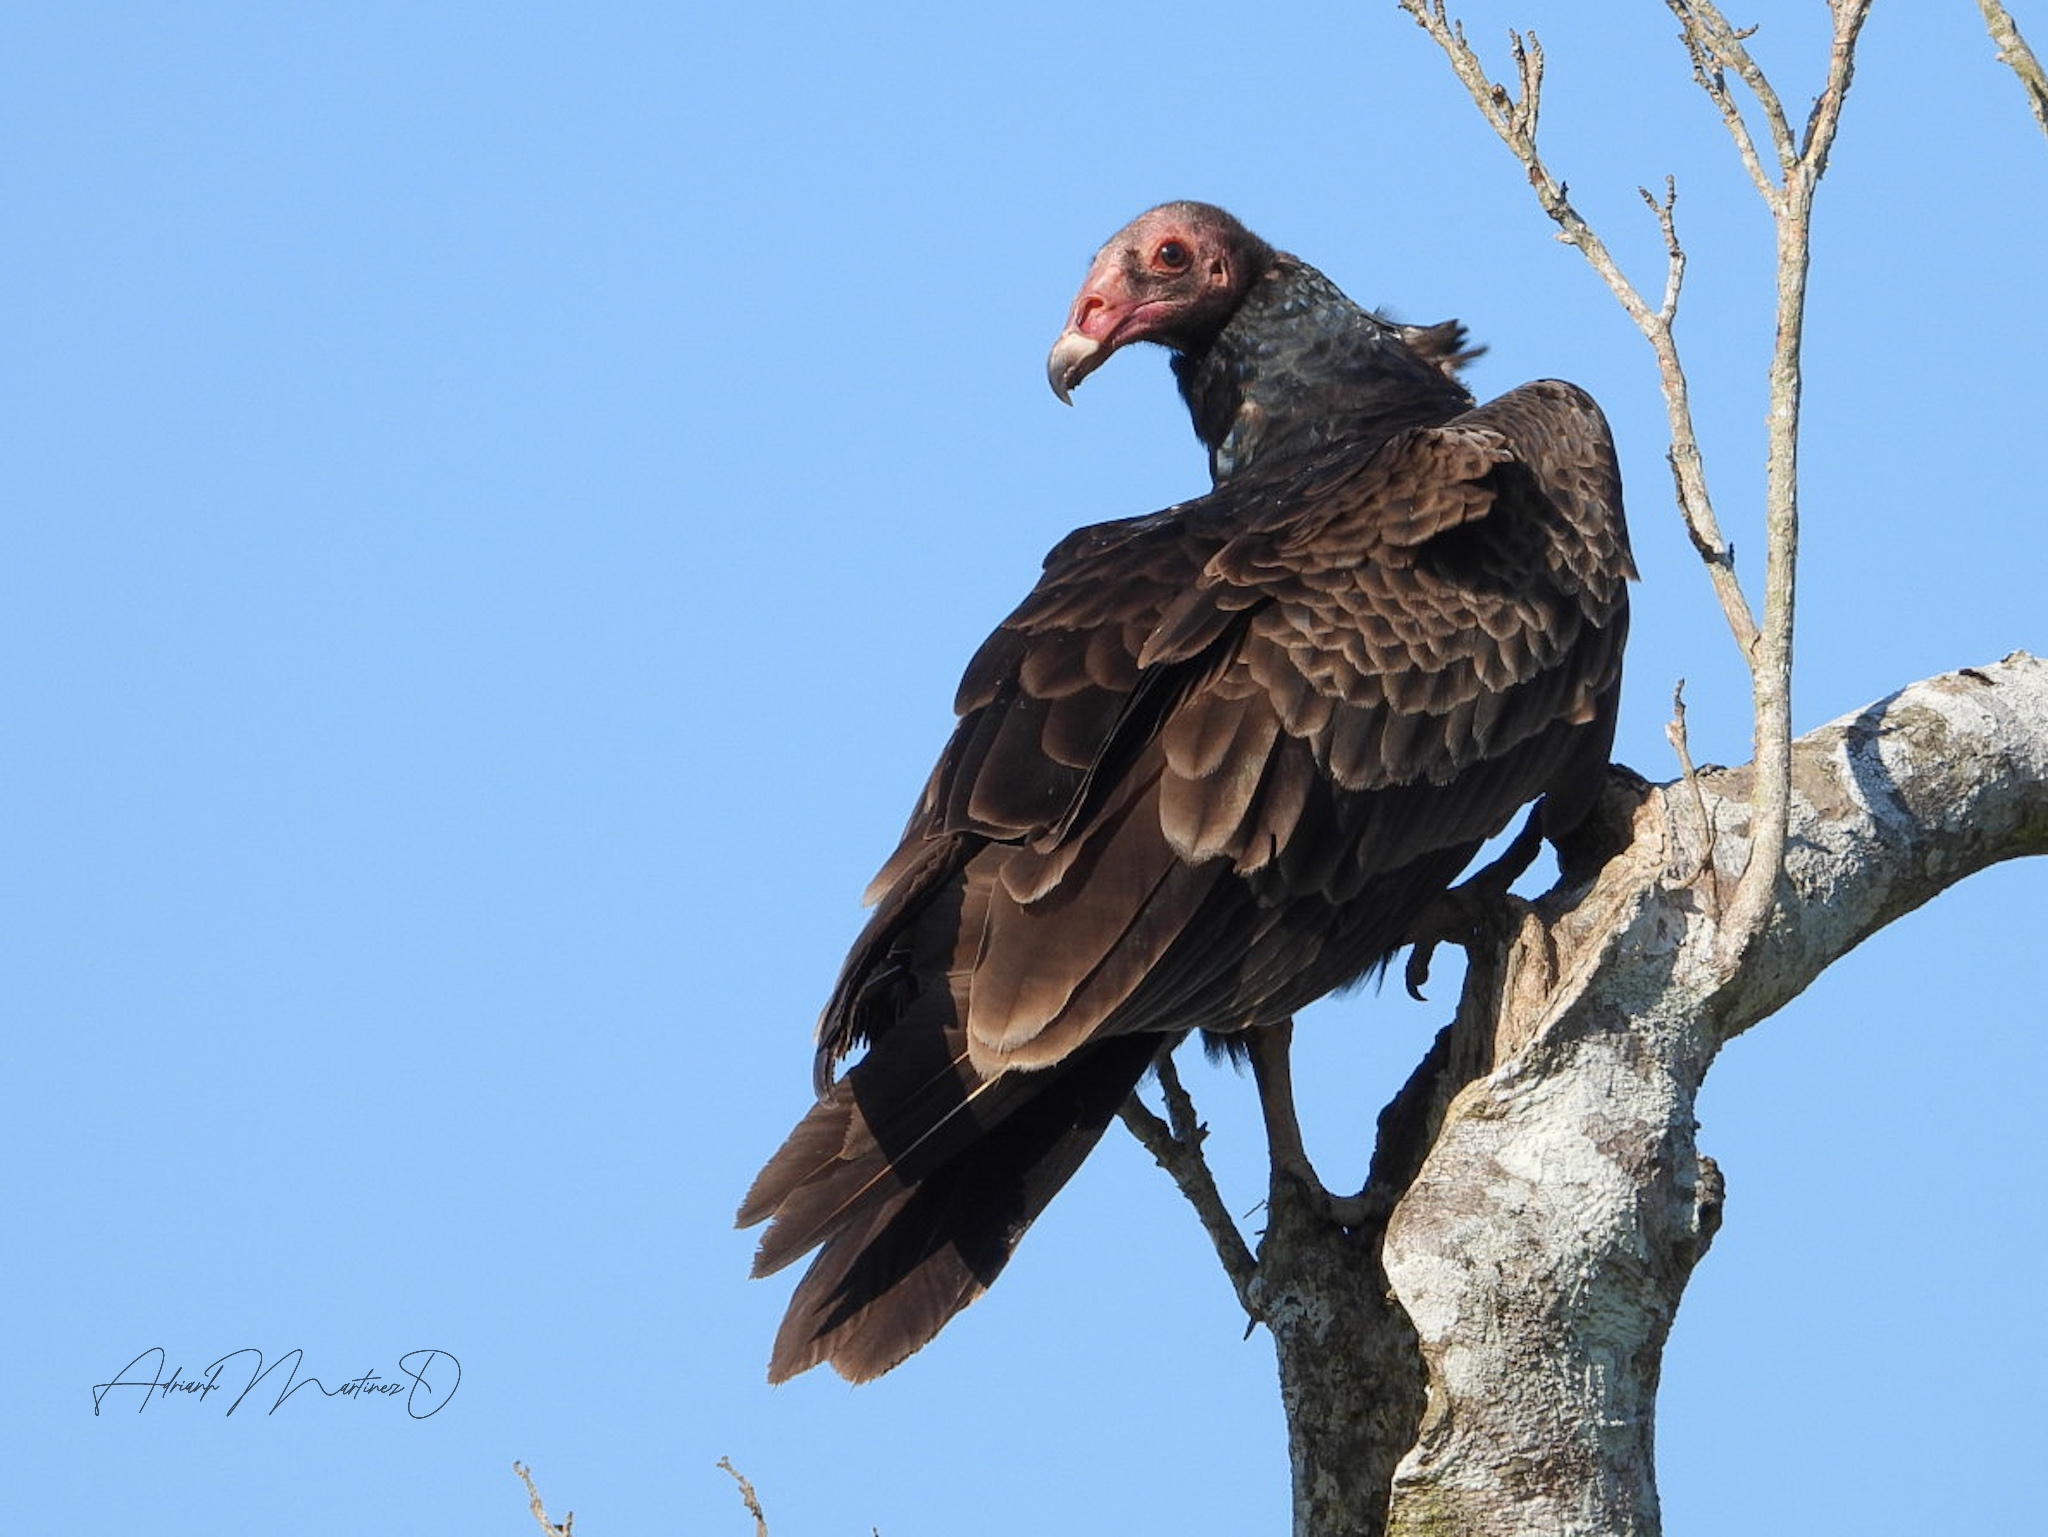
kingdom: Animalia
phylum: Chordata
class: Aves
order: Accipitriformes
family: Cathartidae
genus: Cathartes
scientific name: Cathartes aura
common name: Turkey vulture
